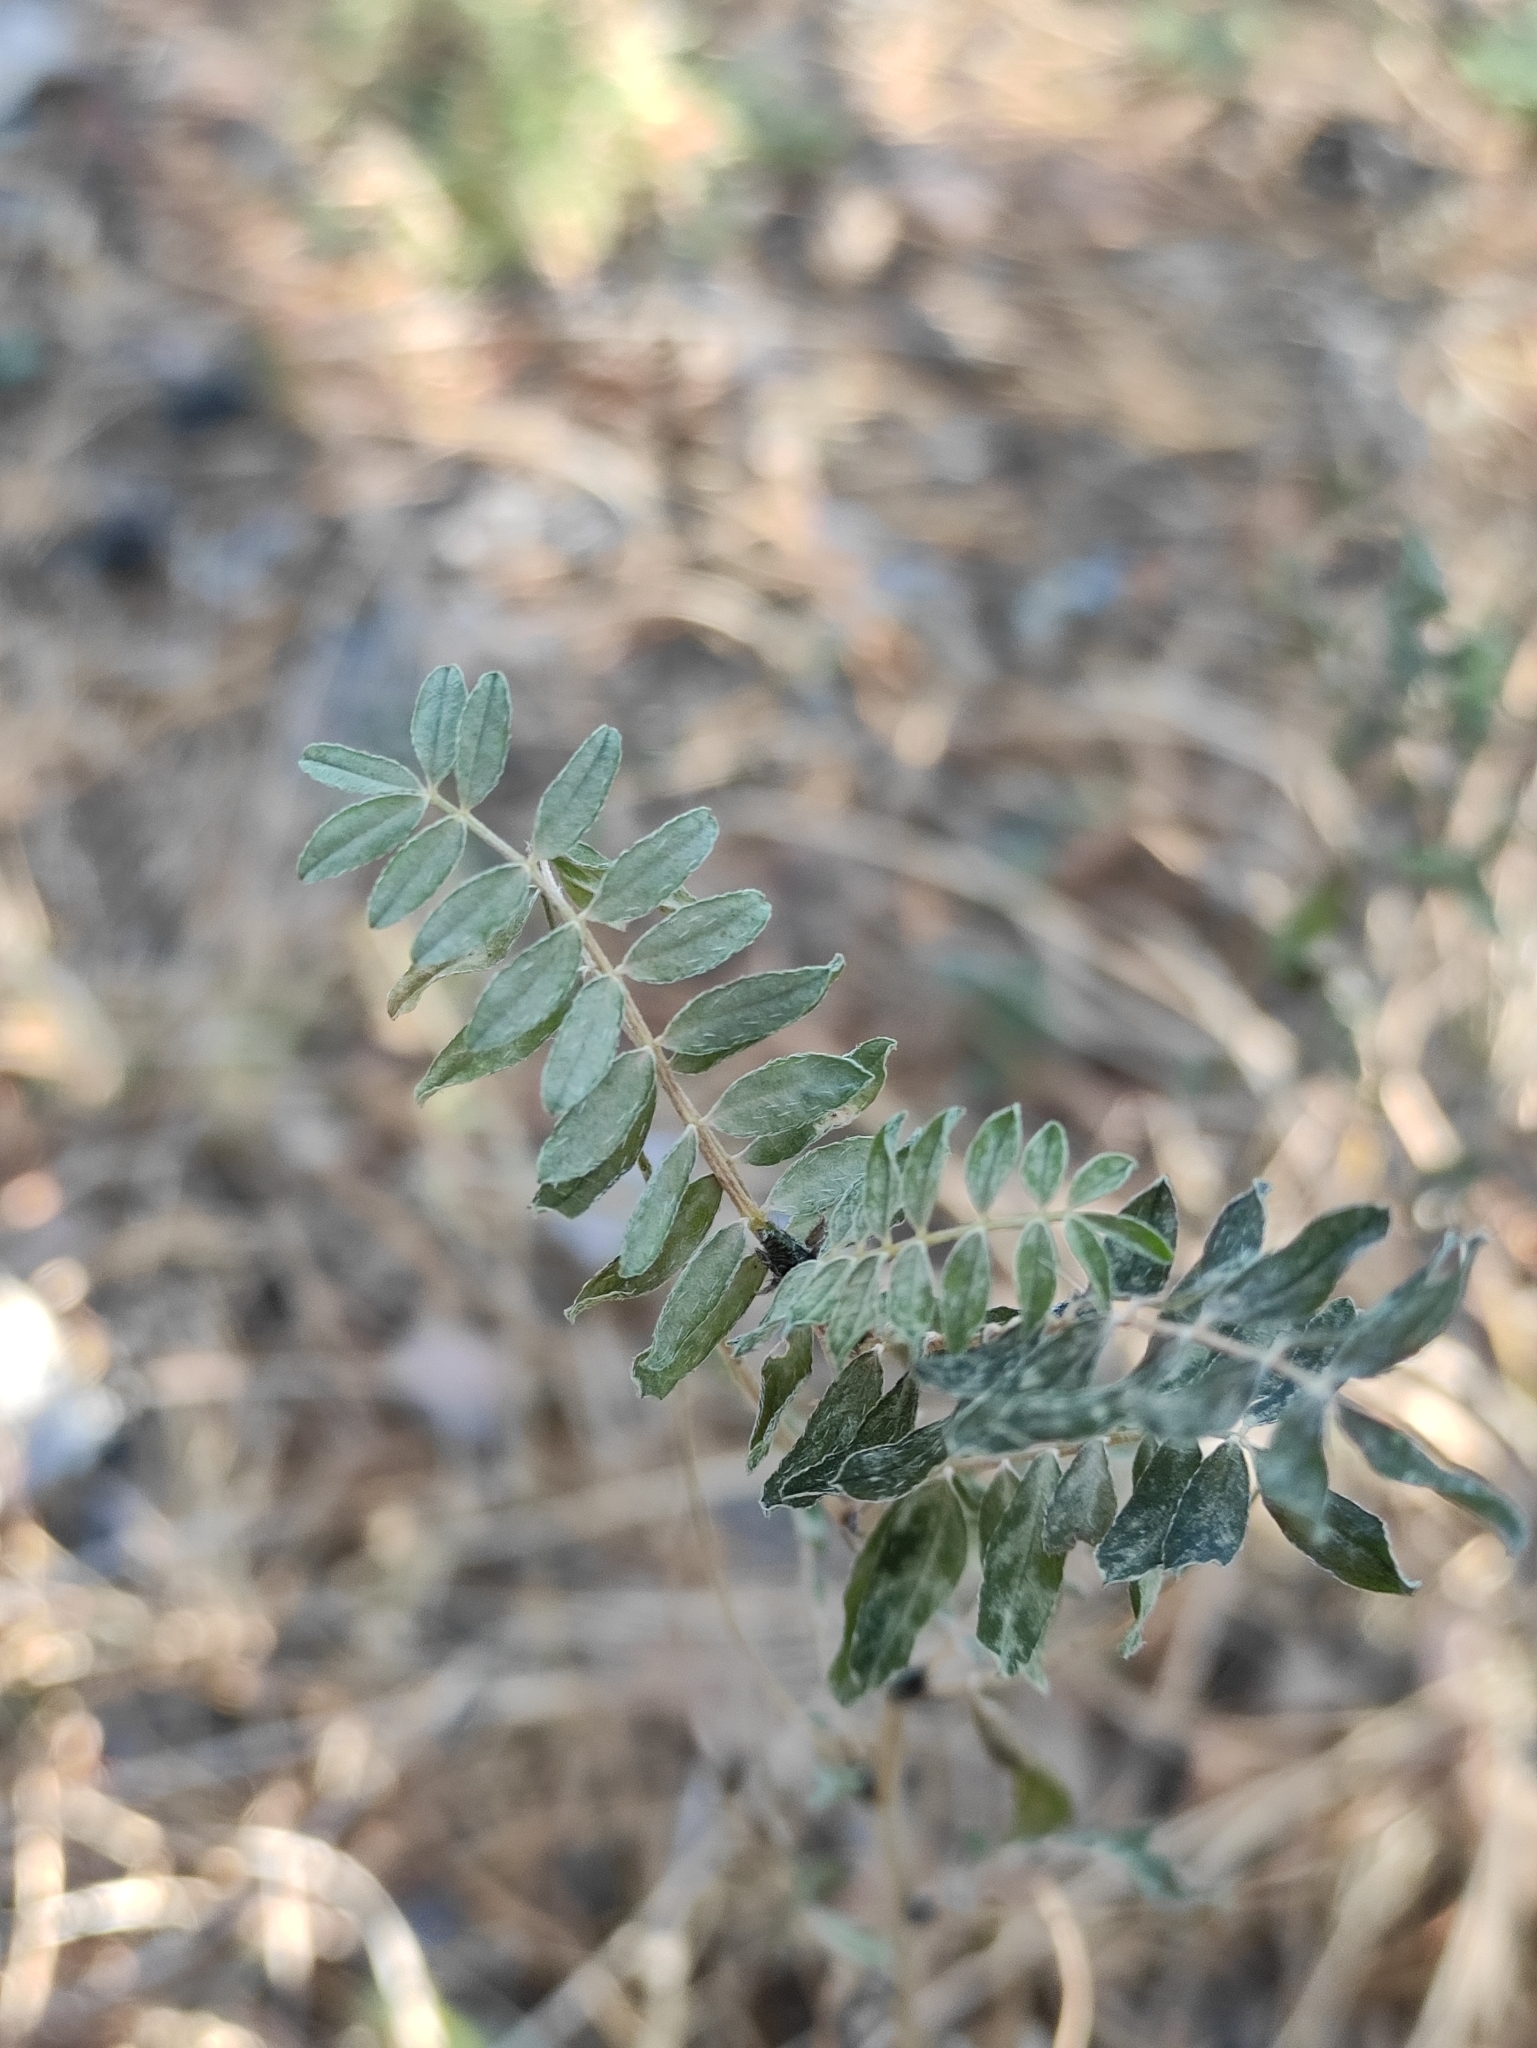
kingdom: Plantae
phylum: Tracheophyta
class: Magnoliopsida
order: Fabales
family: Fabaceae
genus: Astragalus
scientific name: Astragalus syriacus
